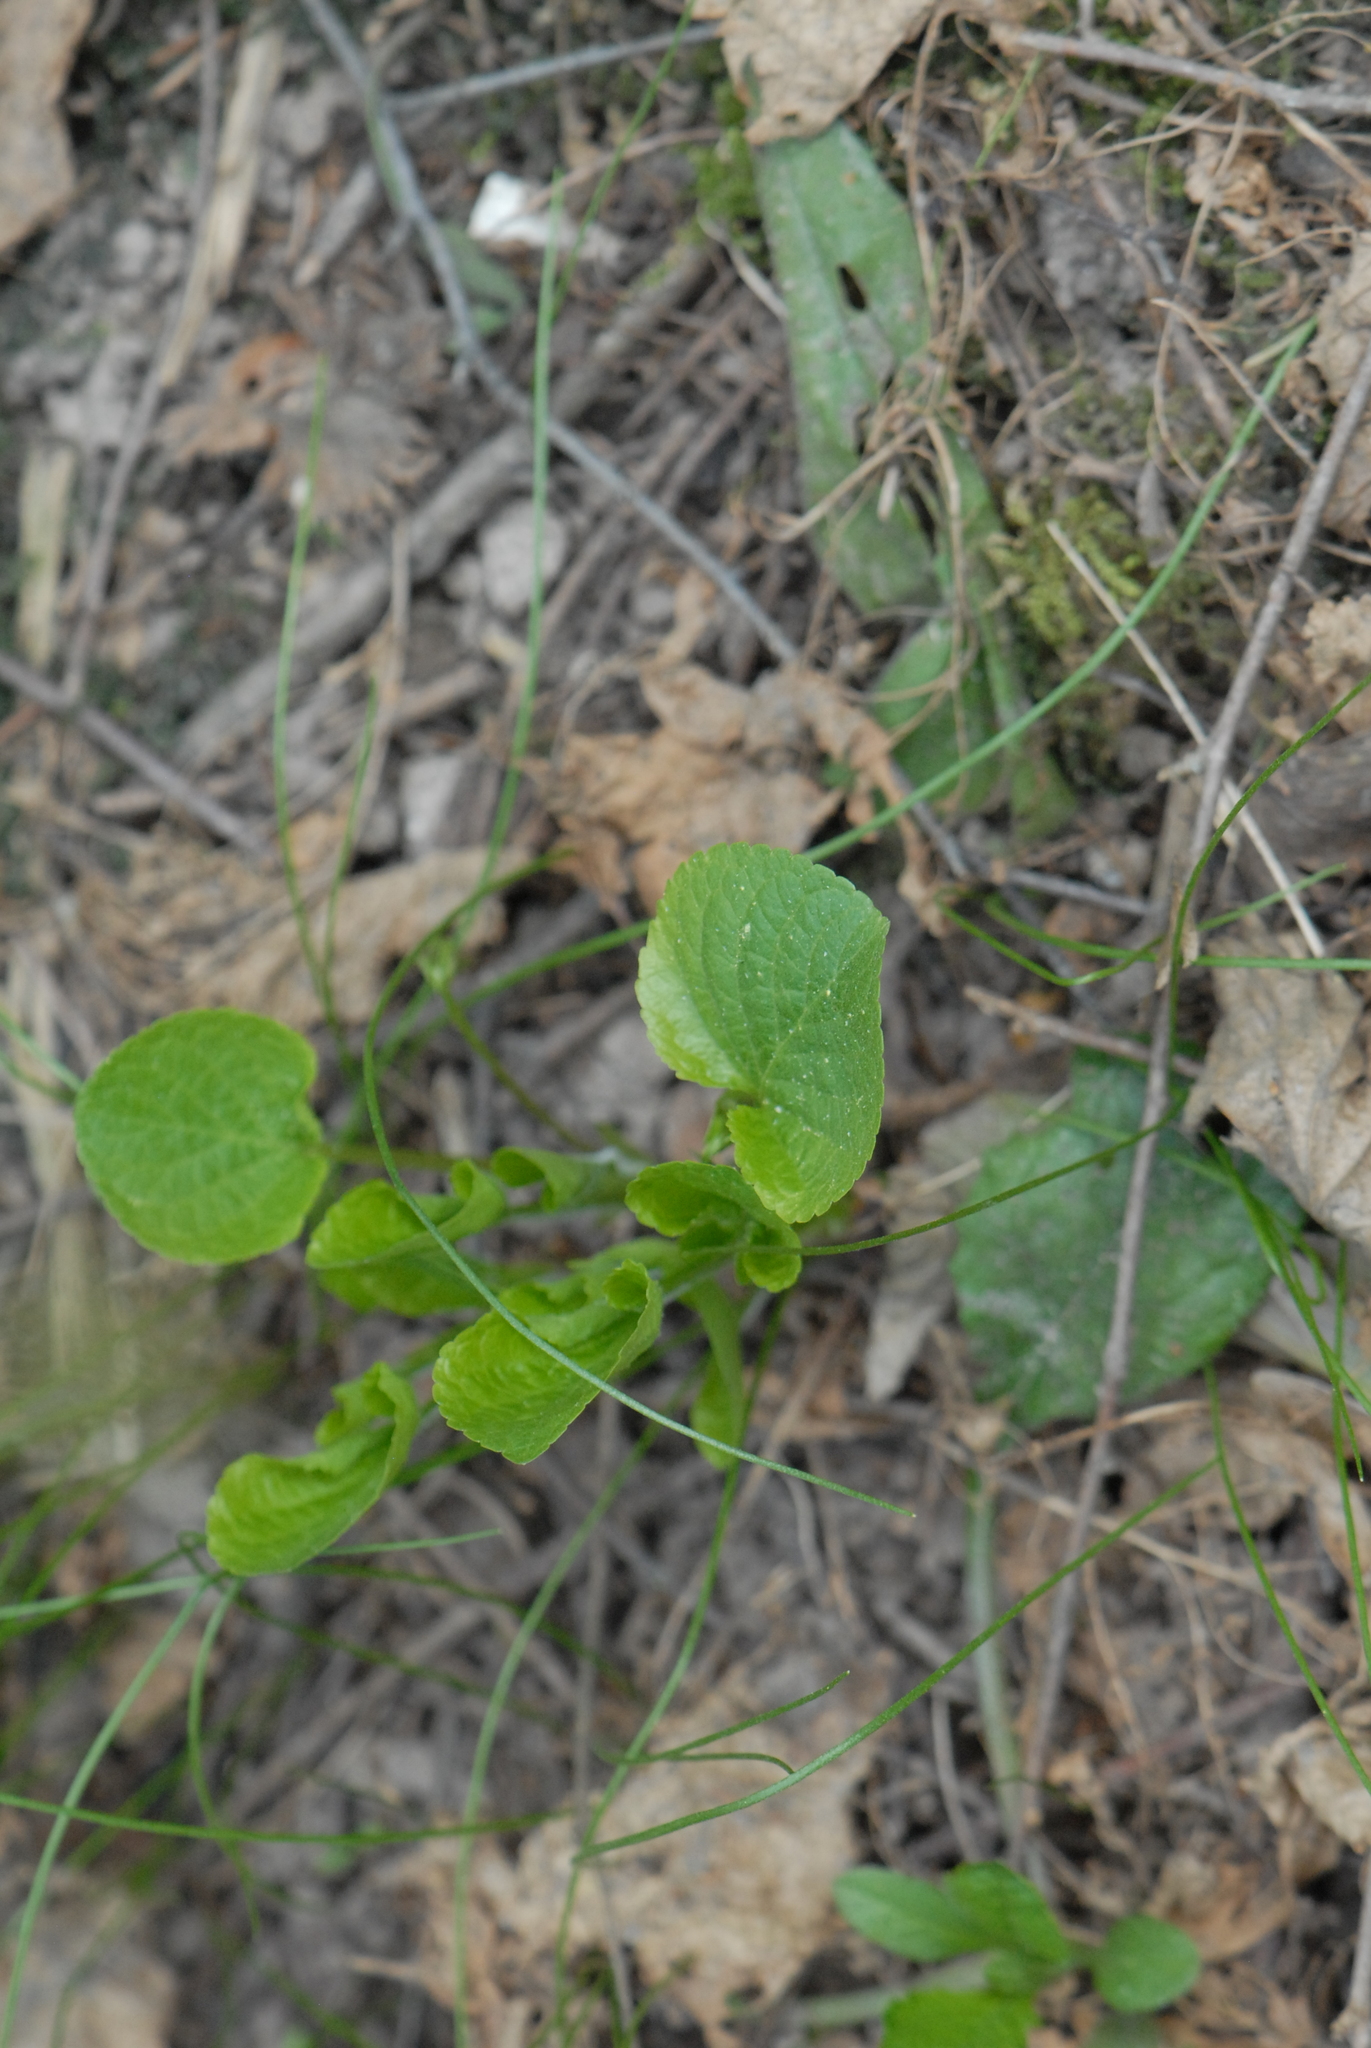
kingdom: Plantae
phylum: Tracheophyta
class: Magnoliopsida
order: Malpighiales
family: Violaceae
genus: Viola
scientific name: Viola mirabilis
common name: Wonder violet
